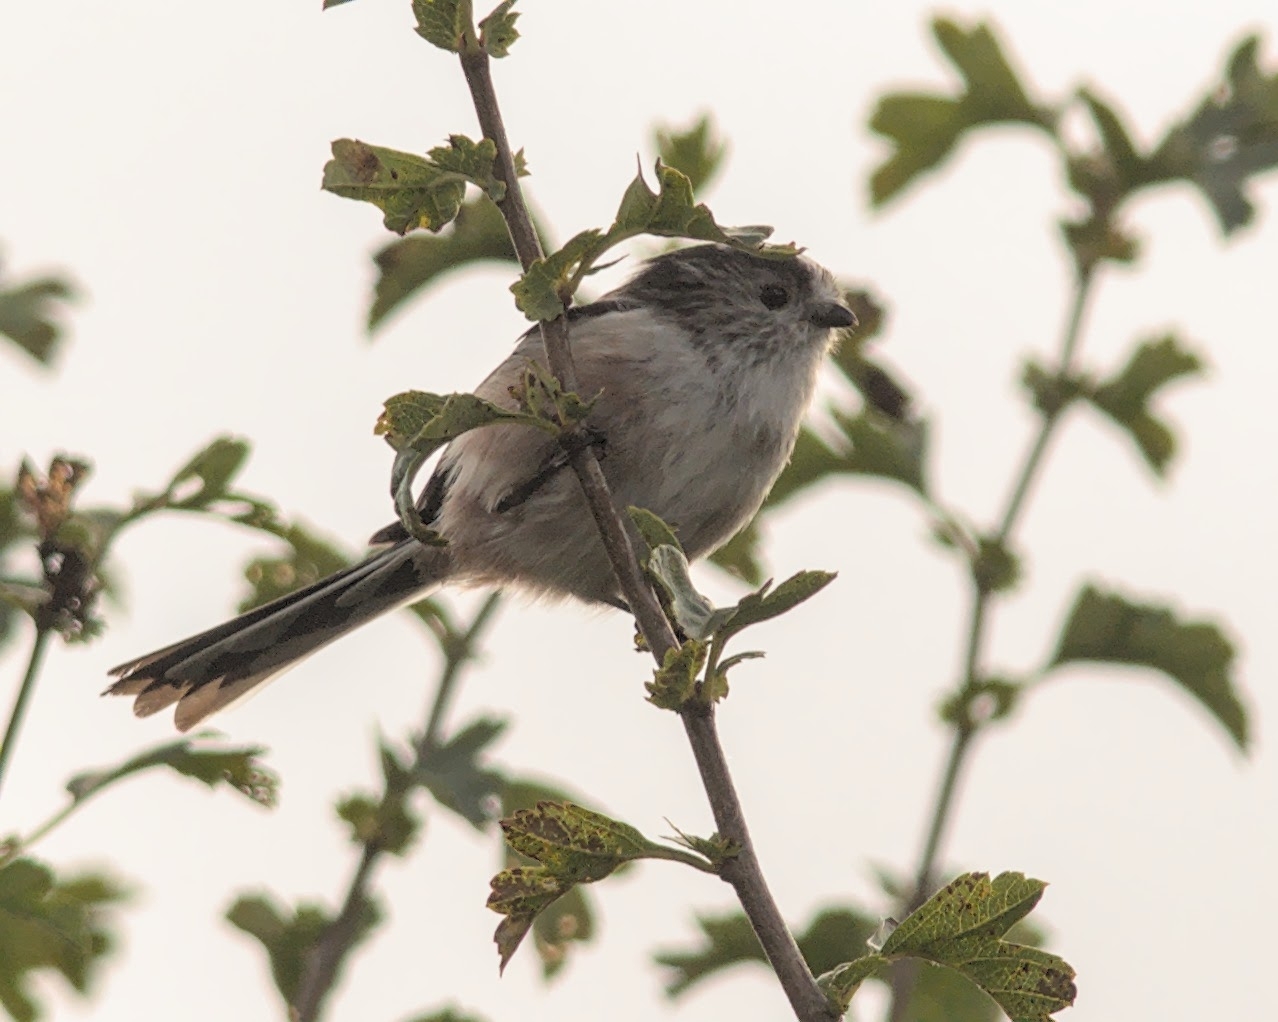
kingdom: Animalia
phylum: Chordata
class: Aves
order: Passeriformes
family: Aegithalidae
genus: Aegithalos
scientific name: Aegithalos caudatus
